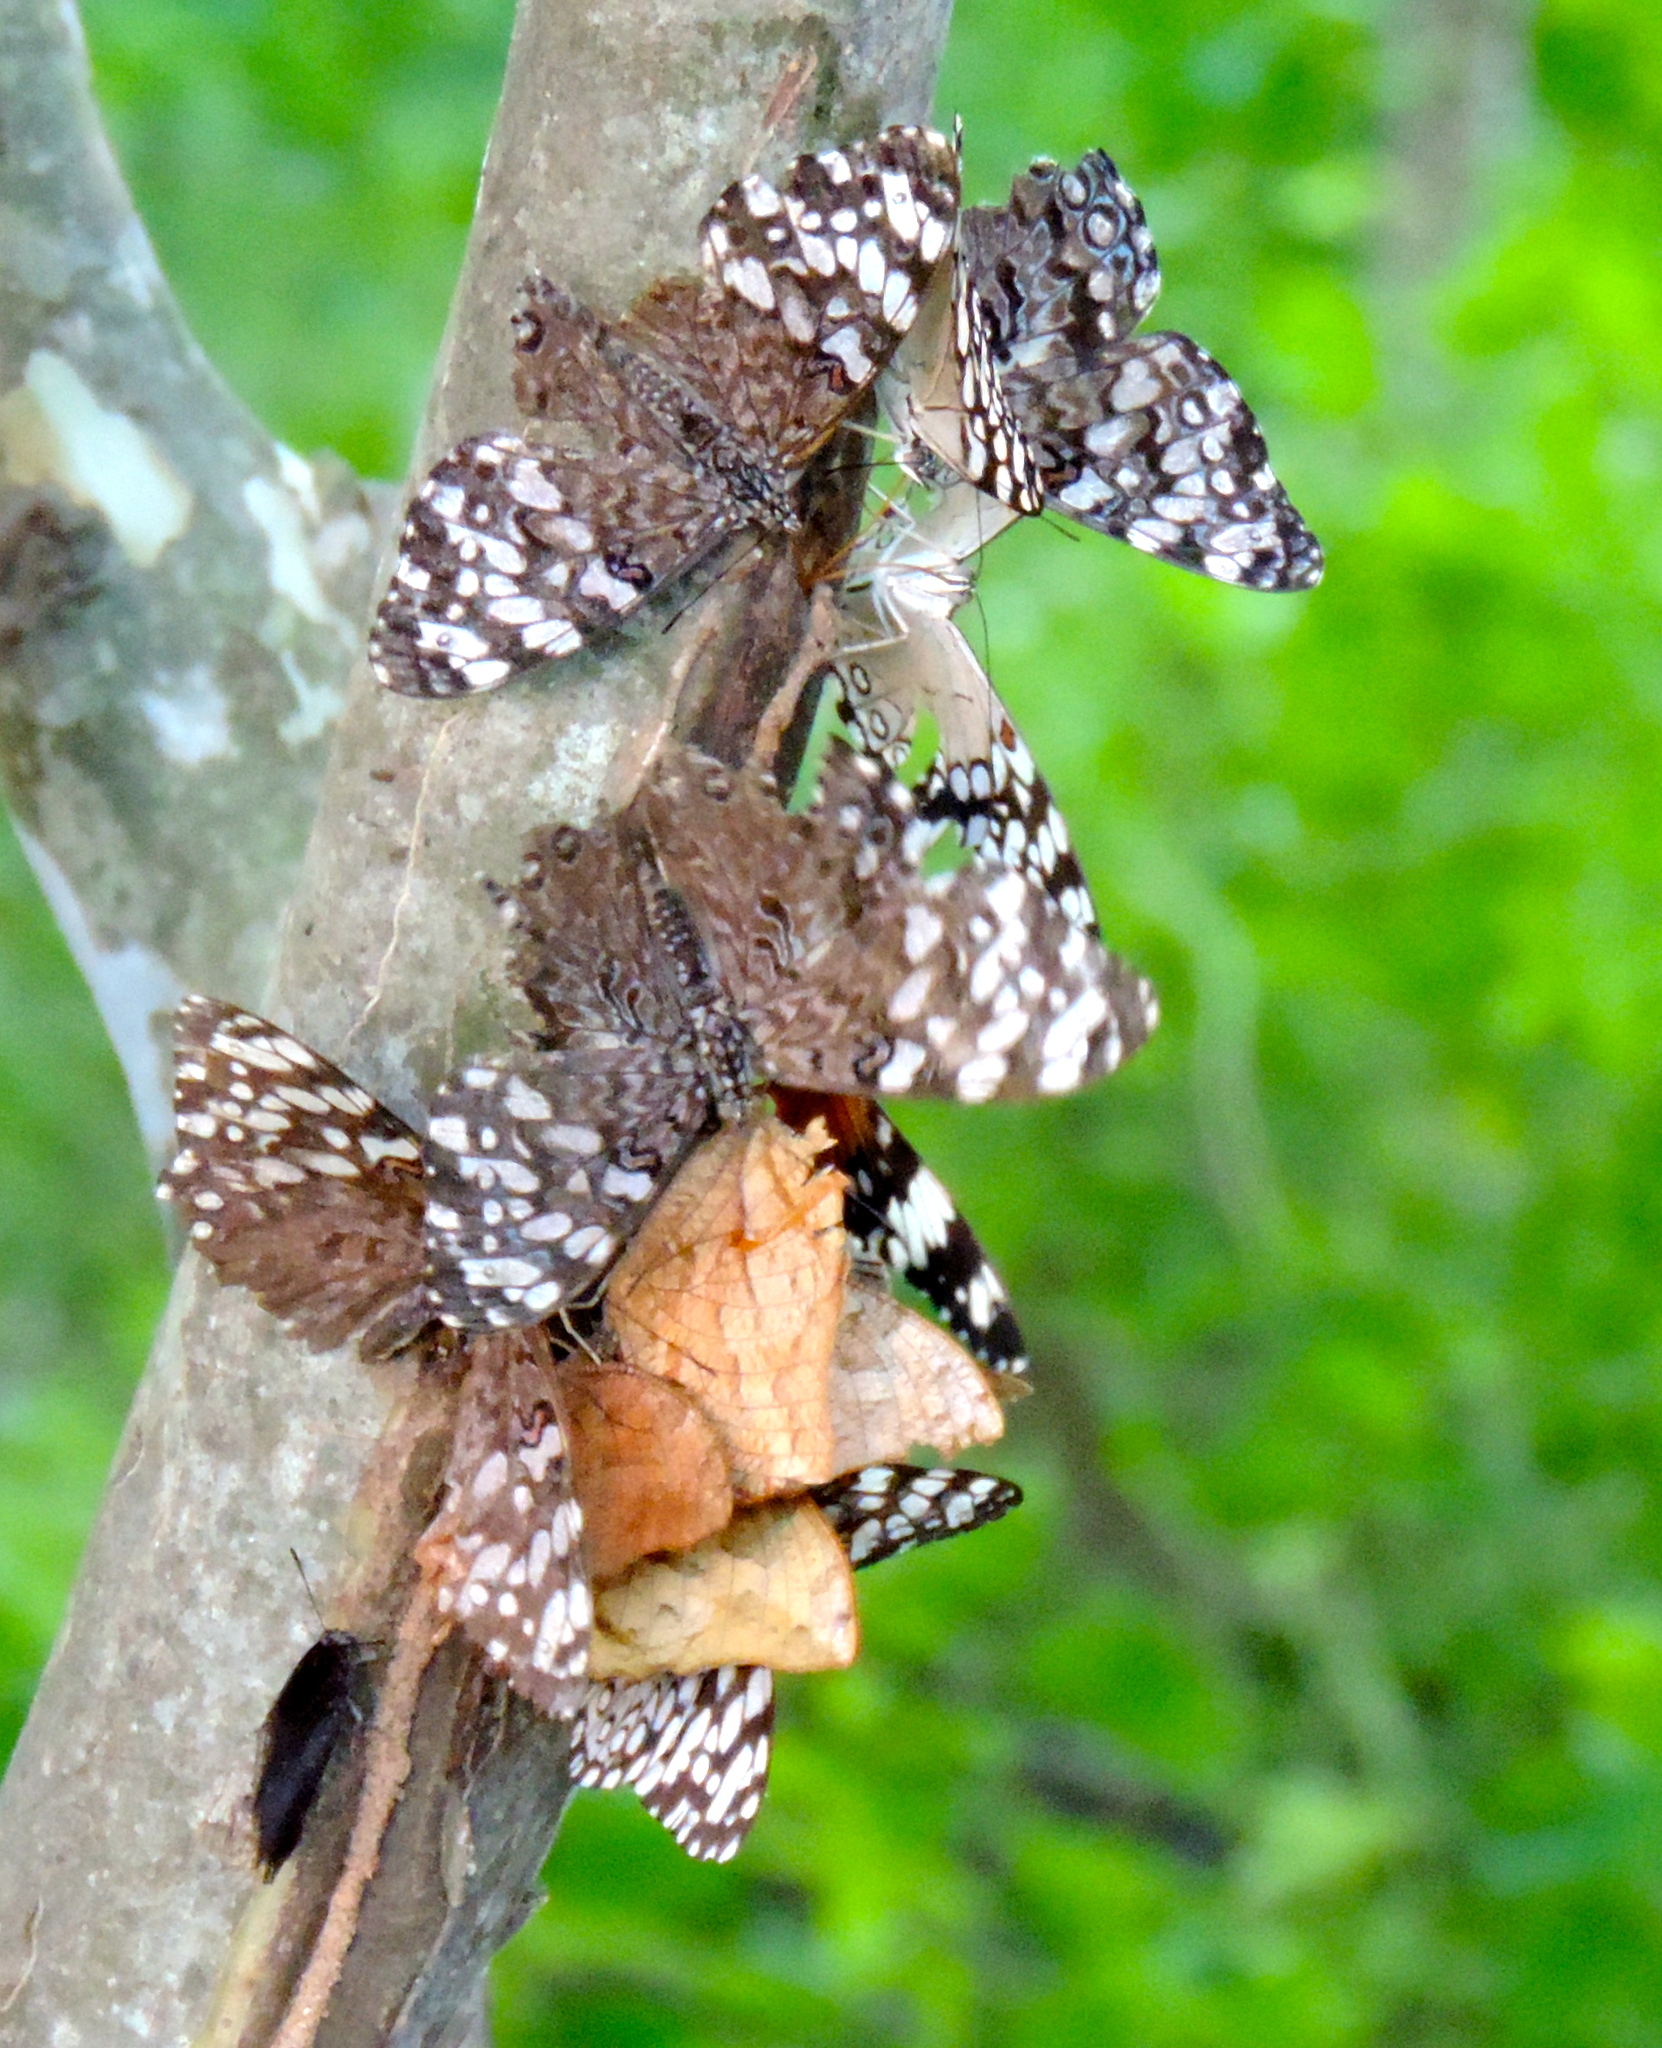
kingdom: Animalia
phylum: Arthropoda
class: Insecta
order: Lepidoptera
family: Nymphalidae
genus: Hamadryas
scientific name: Hamadryas guatemalena
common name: Guatemalan cracker
